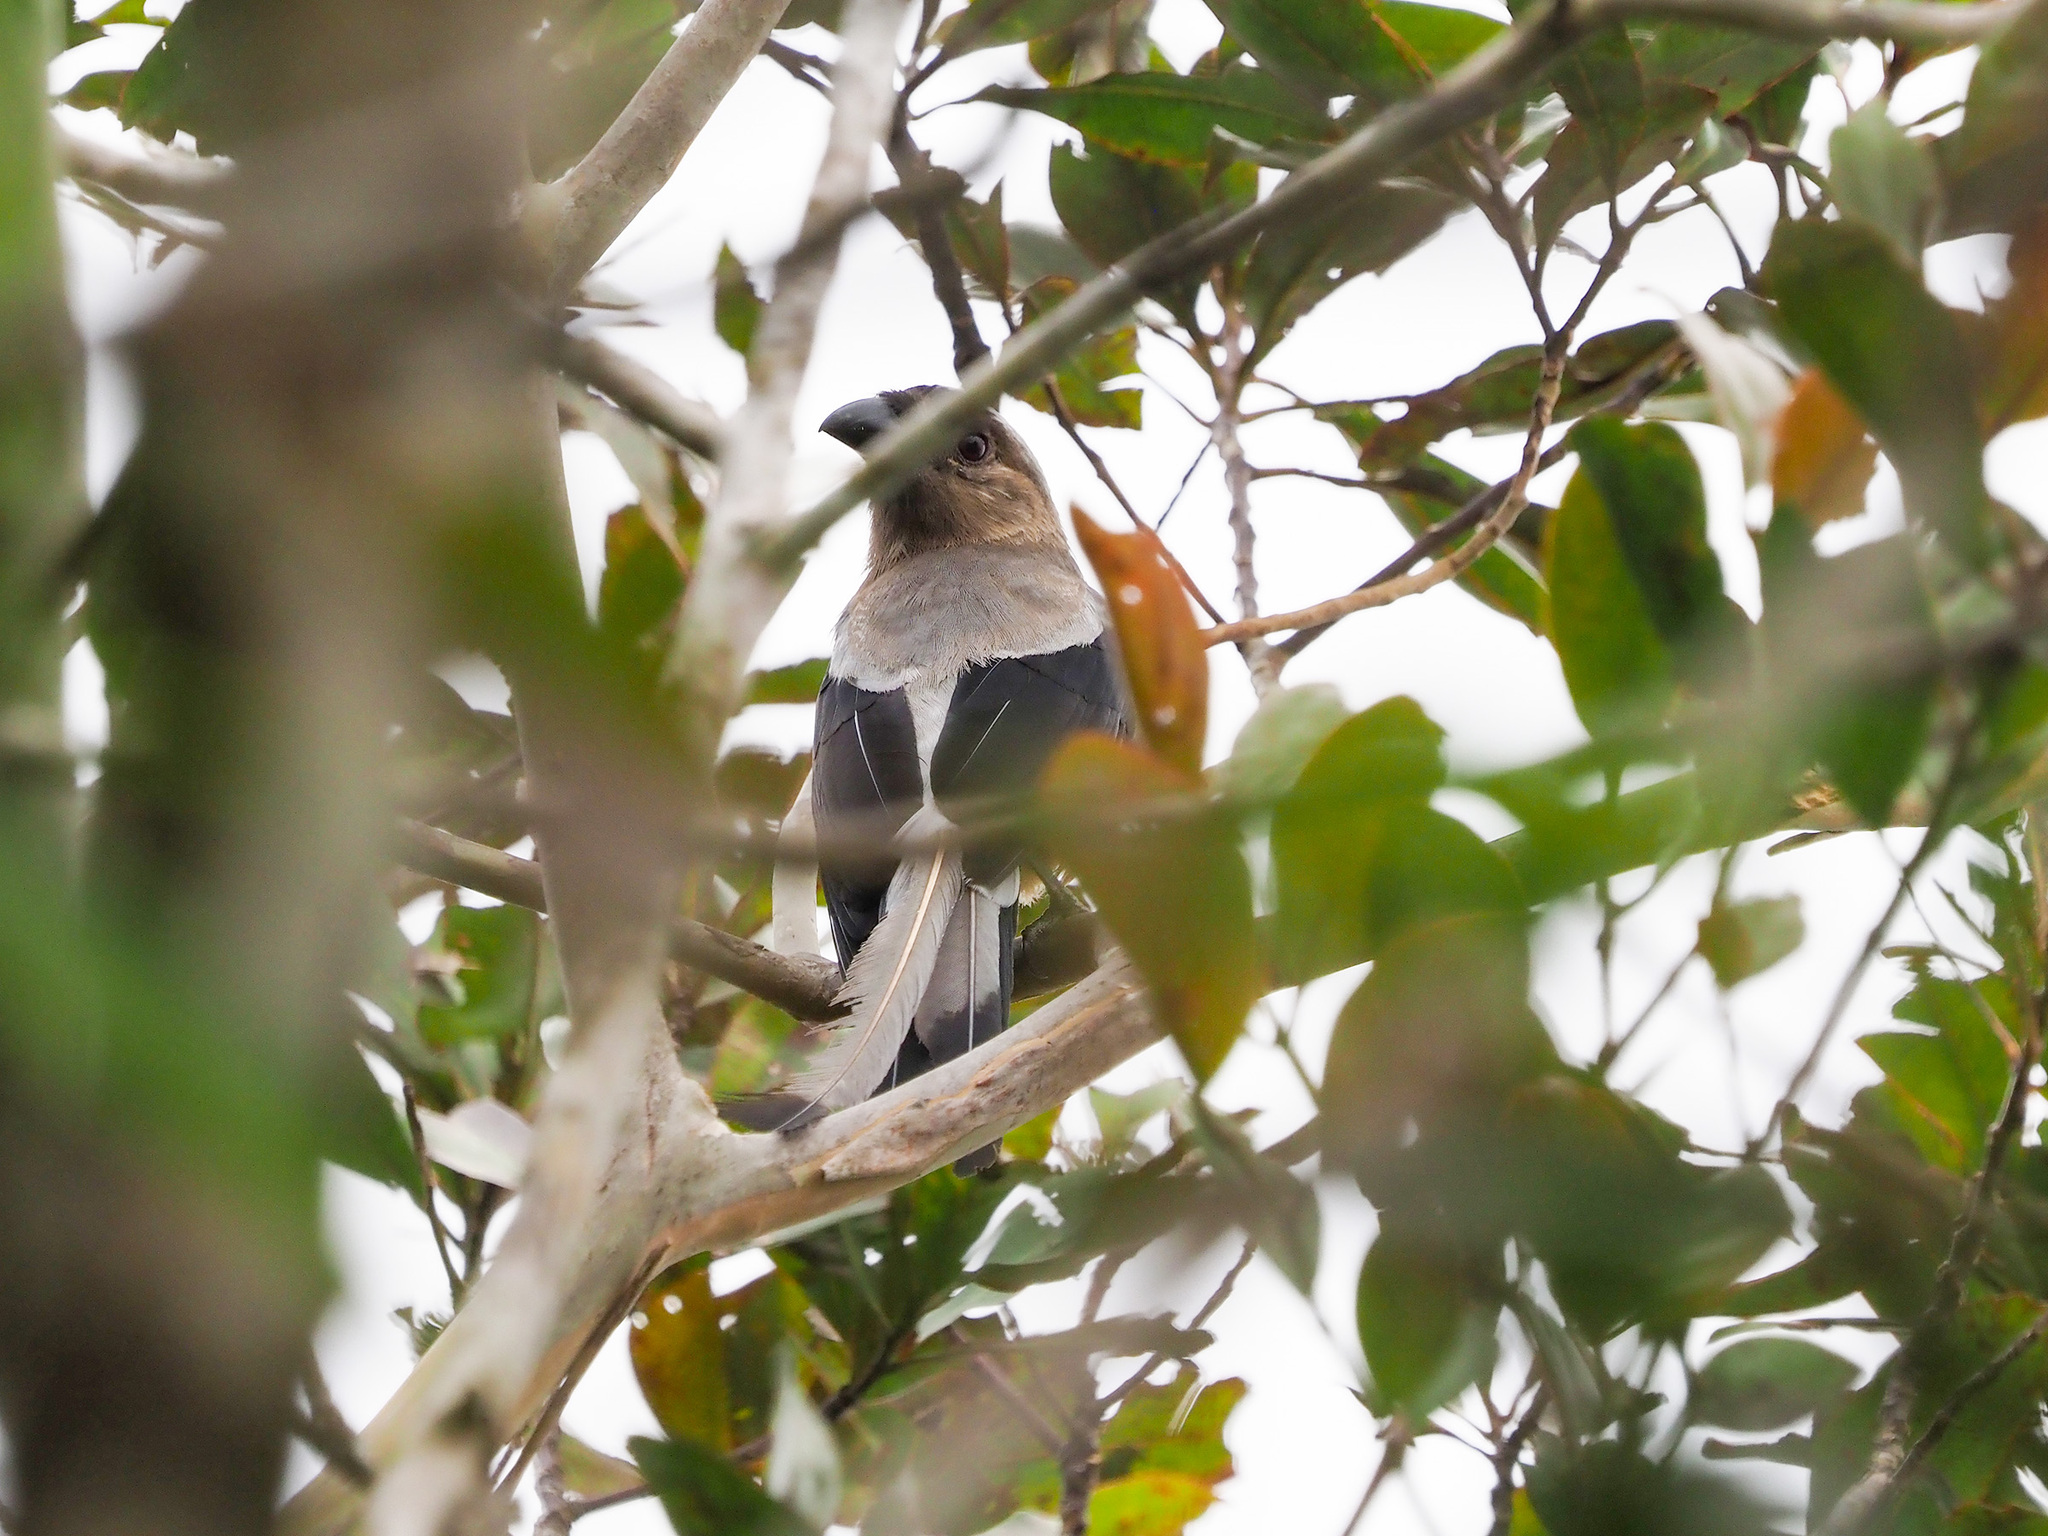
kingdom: Animalia
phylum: Chordata
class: Aves
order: Passeriformes
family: Corvidae
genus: Dendrocitta
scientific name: Dendrocitta cinerascens
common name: Bornean treepie
